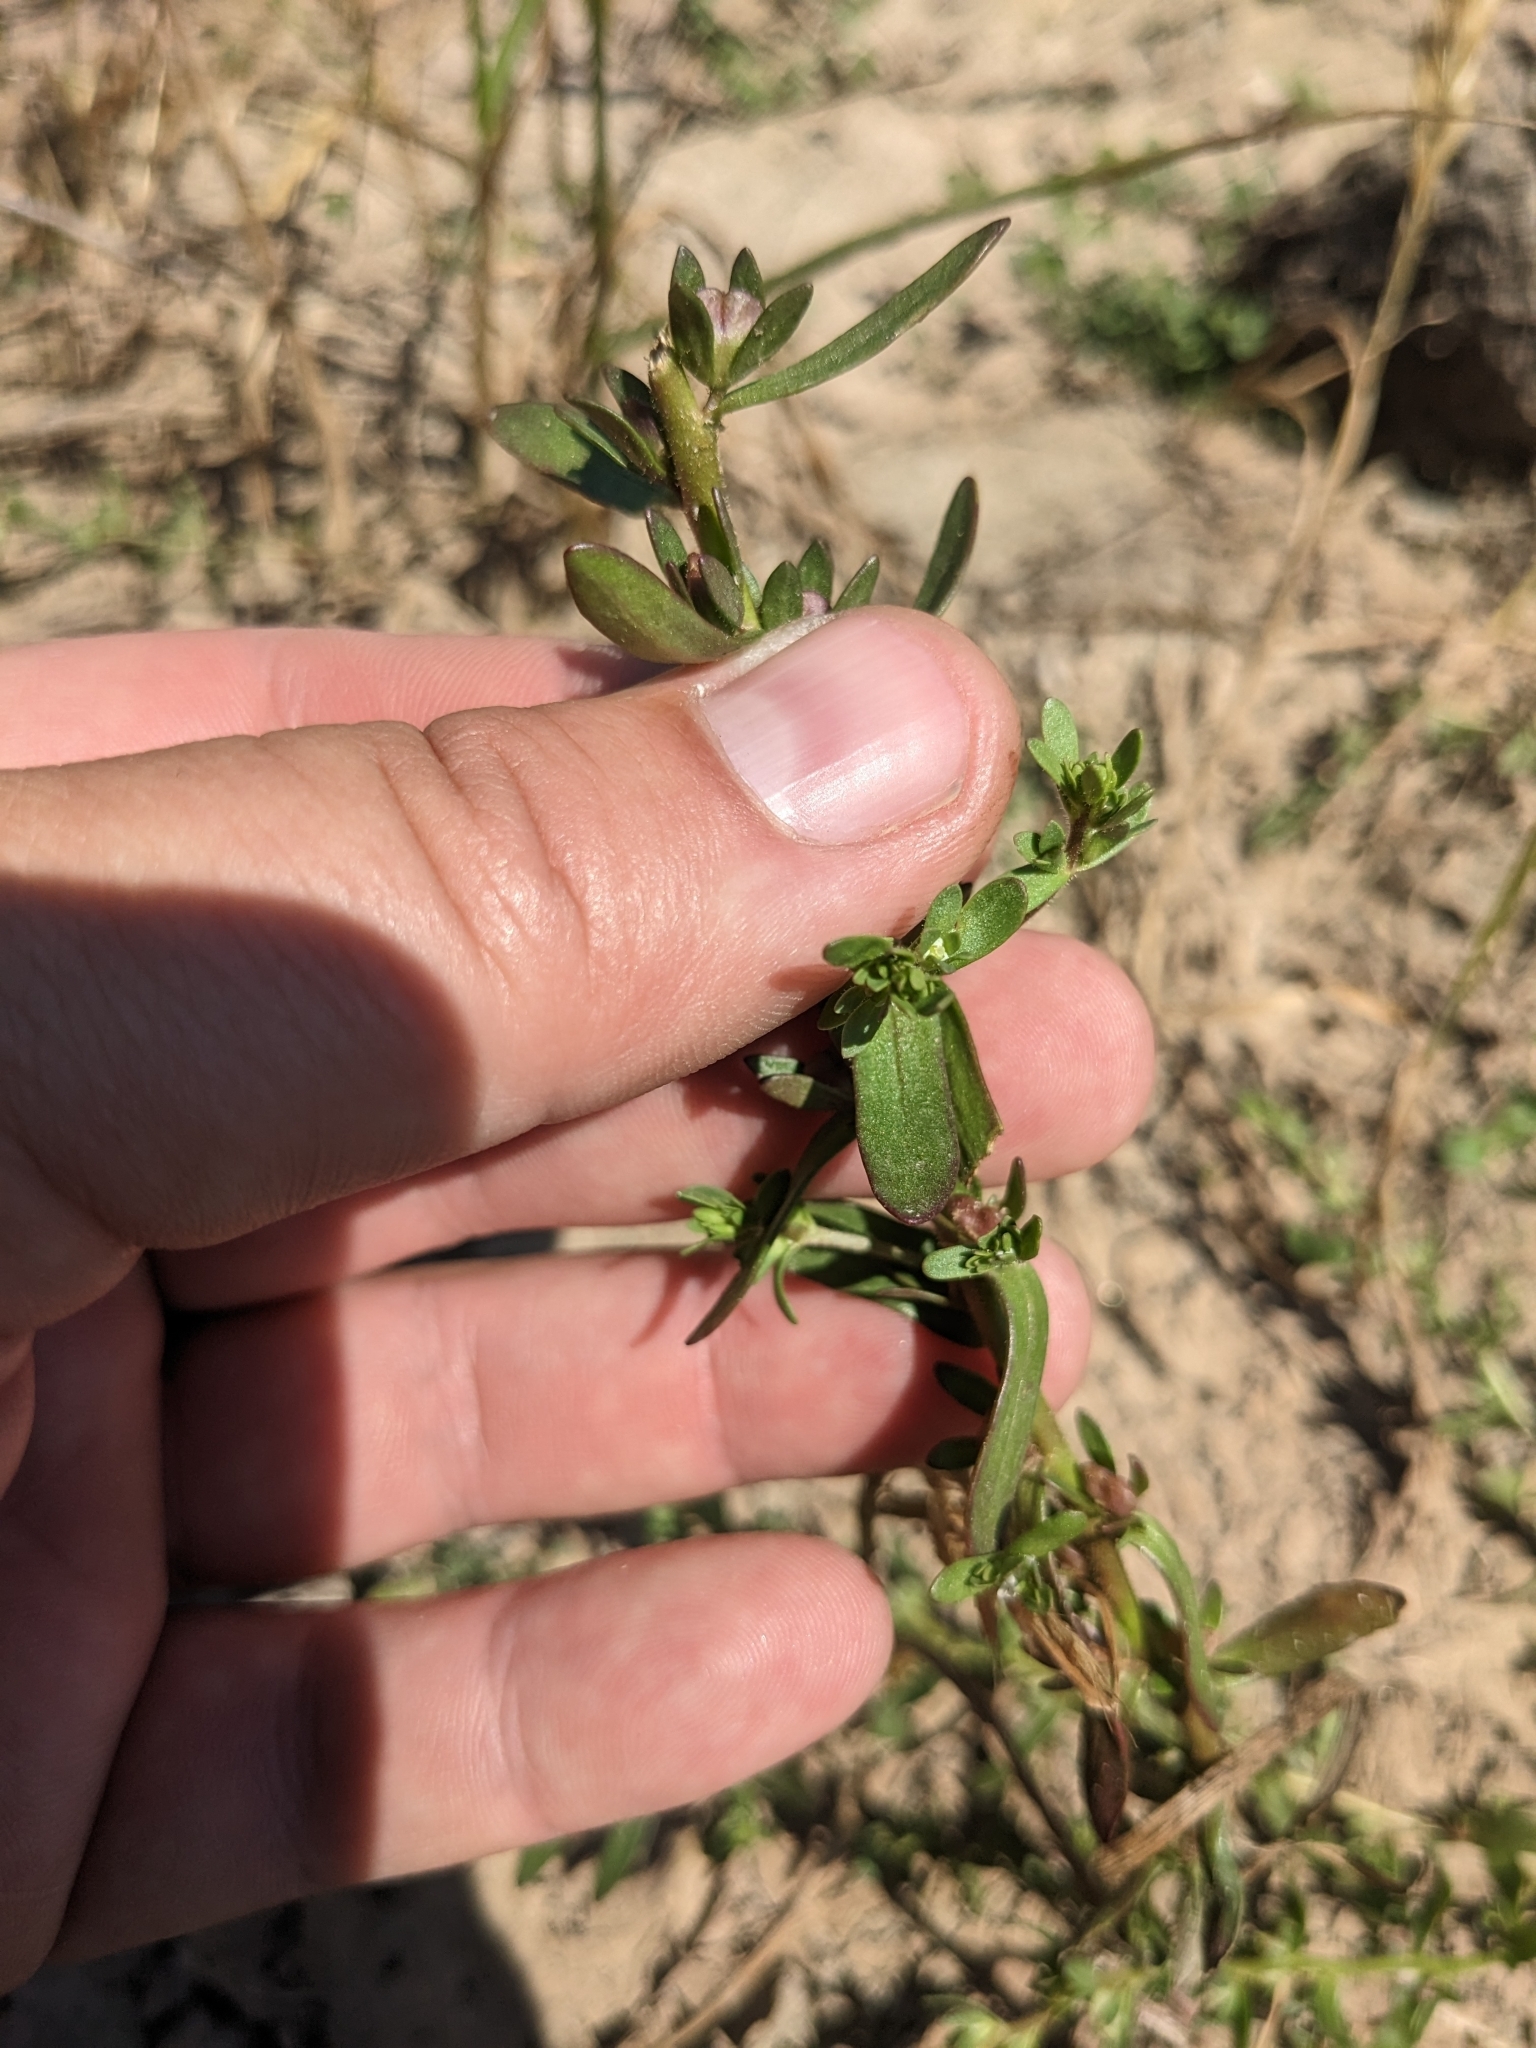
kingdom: Plantae
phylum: Tracheophyta
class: Magnoliopsida
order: Lamiales
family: Plantaginaceae
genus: Veronica
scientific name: Veronica peregrina
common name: Neckweed
